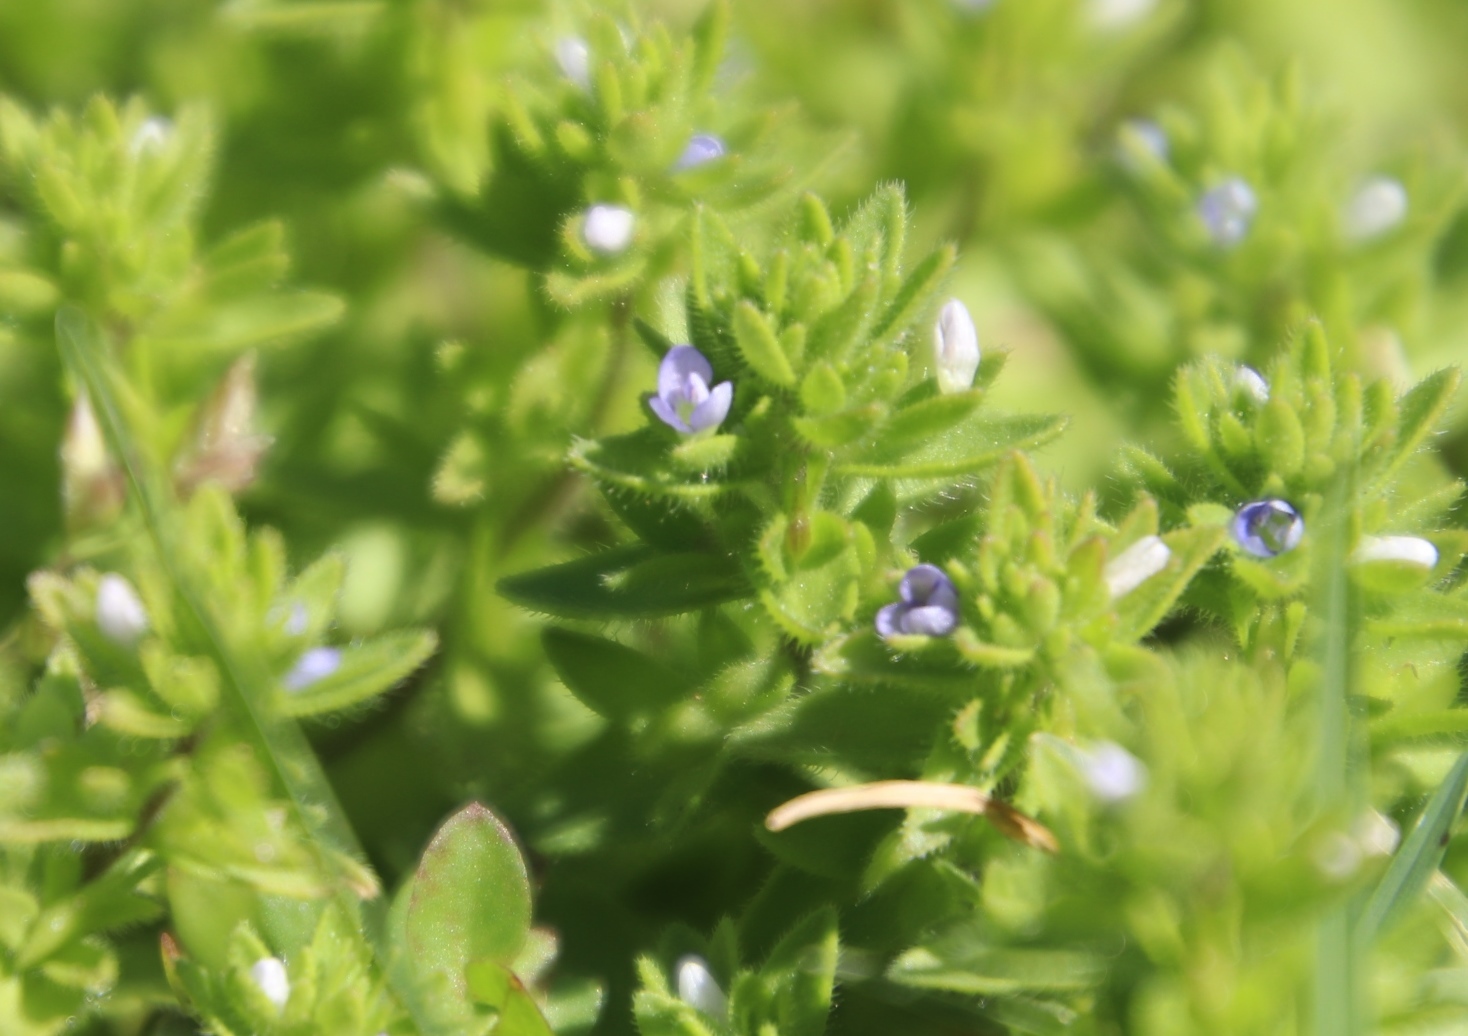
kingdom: Plantae
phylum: Tracheophyta
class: Magnoliopsida
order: Lamiales
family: Plantaginaceae
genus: Veronica
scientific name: Veronica arvensis
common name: Corn speedwell
